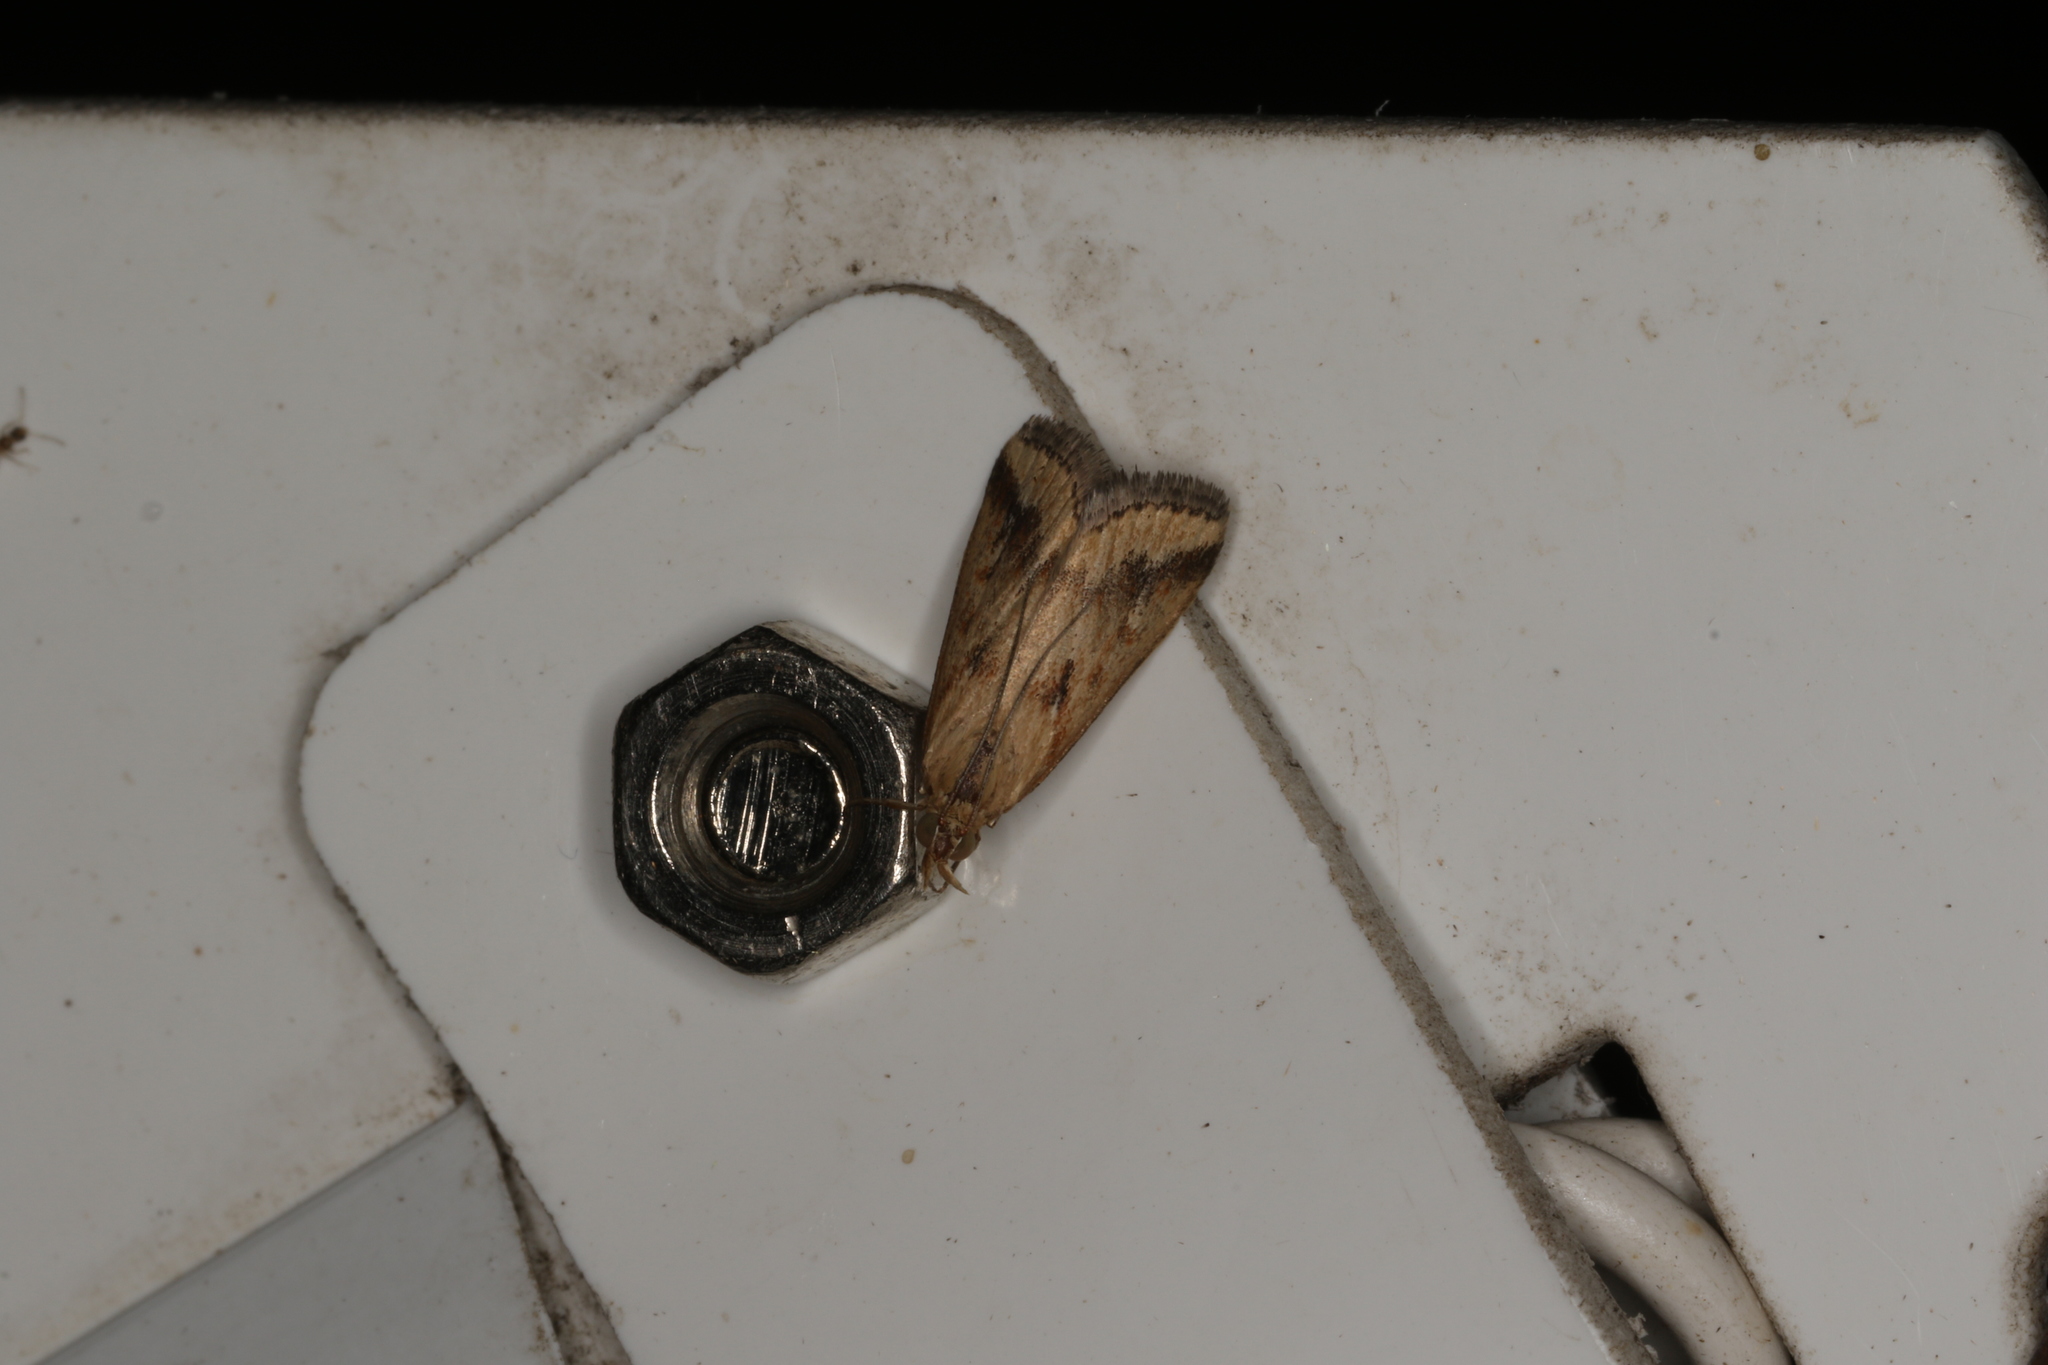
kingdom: Animalia
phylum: Arthropoda
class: Insecta
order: Lepidoptera
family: Crambidae
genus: Achyra
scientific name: Achyra massalis
